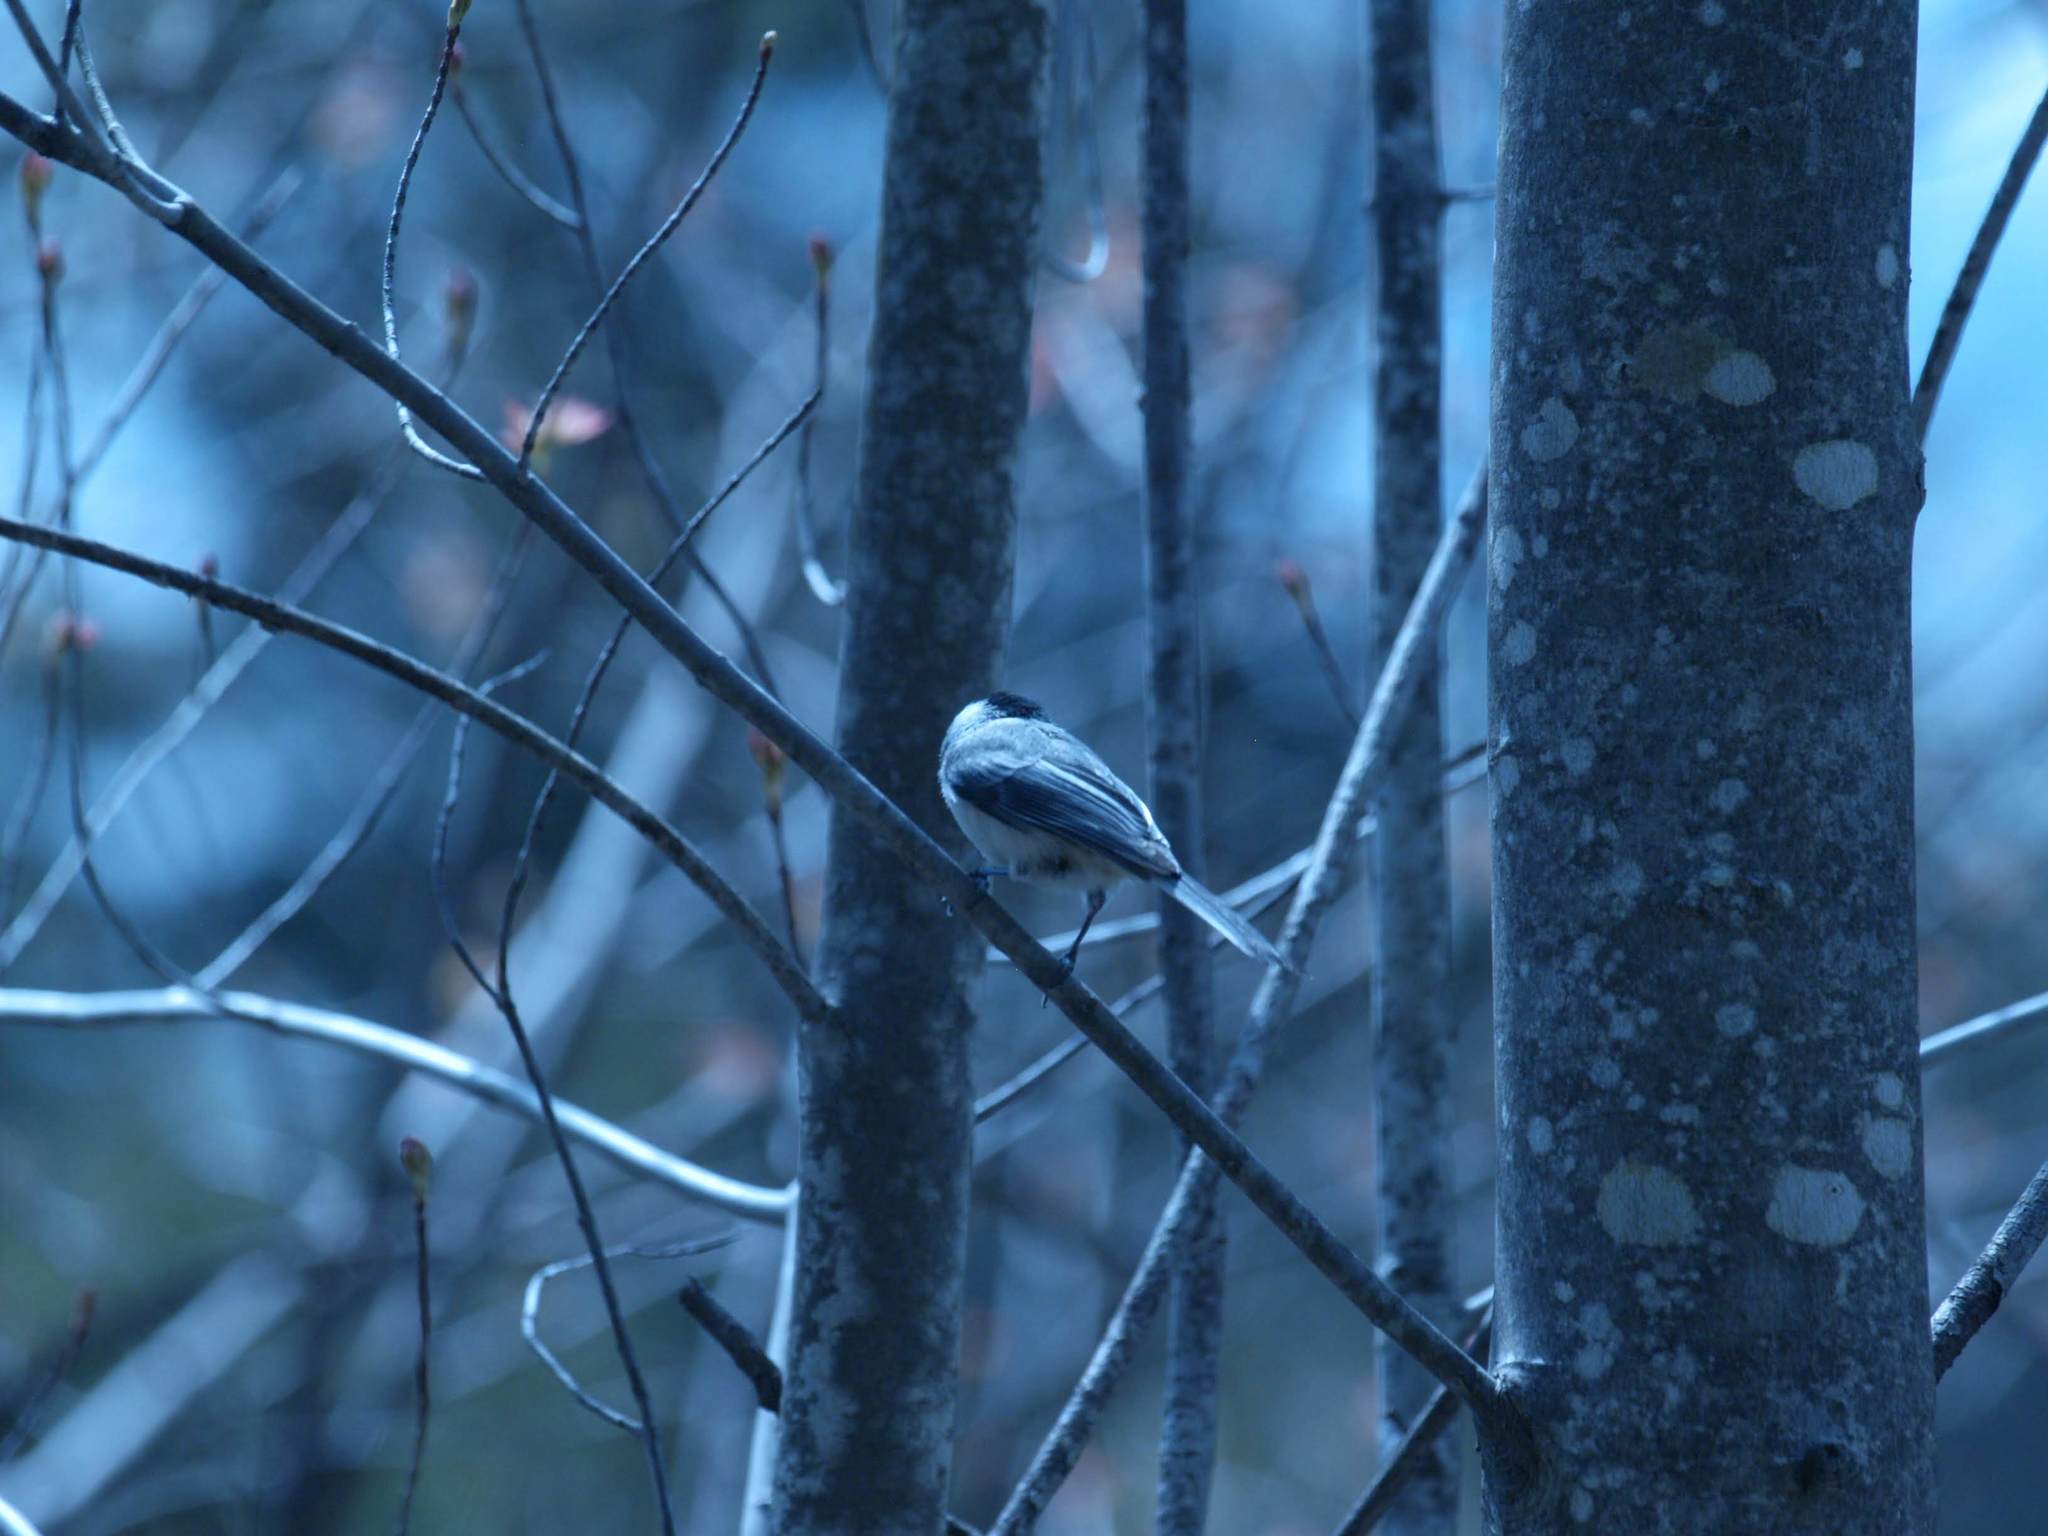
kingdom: Animalia
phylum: Chordata
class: Aves
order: Passeriformes
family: Paridae
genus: Poecile
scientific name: Poecile atricapillus
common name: Black-capped chickadee
